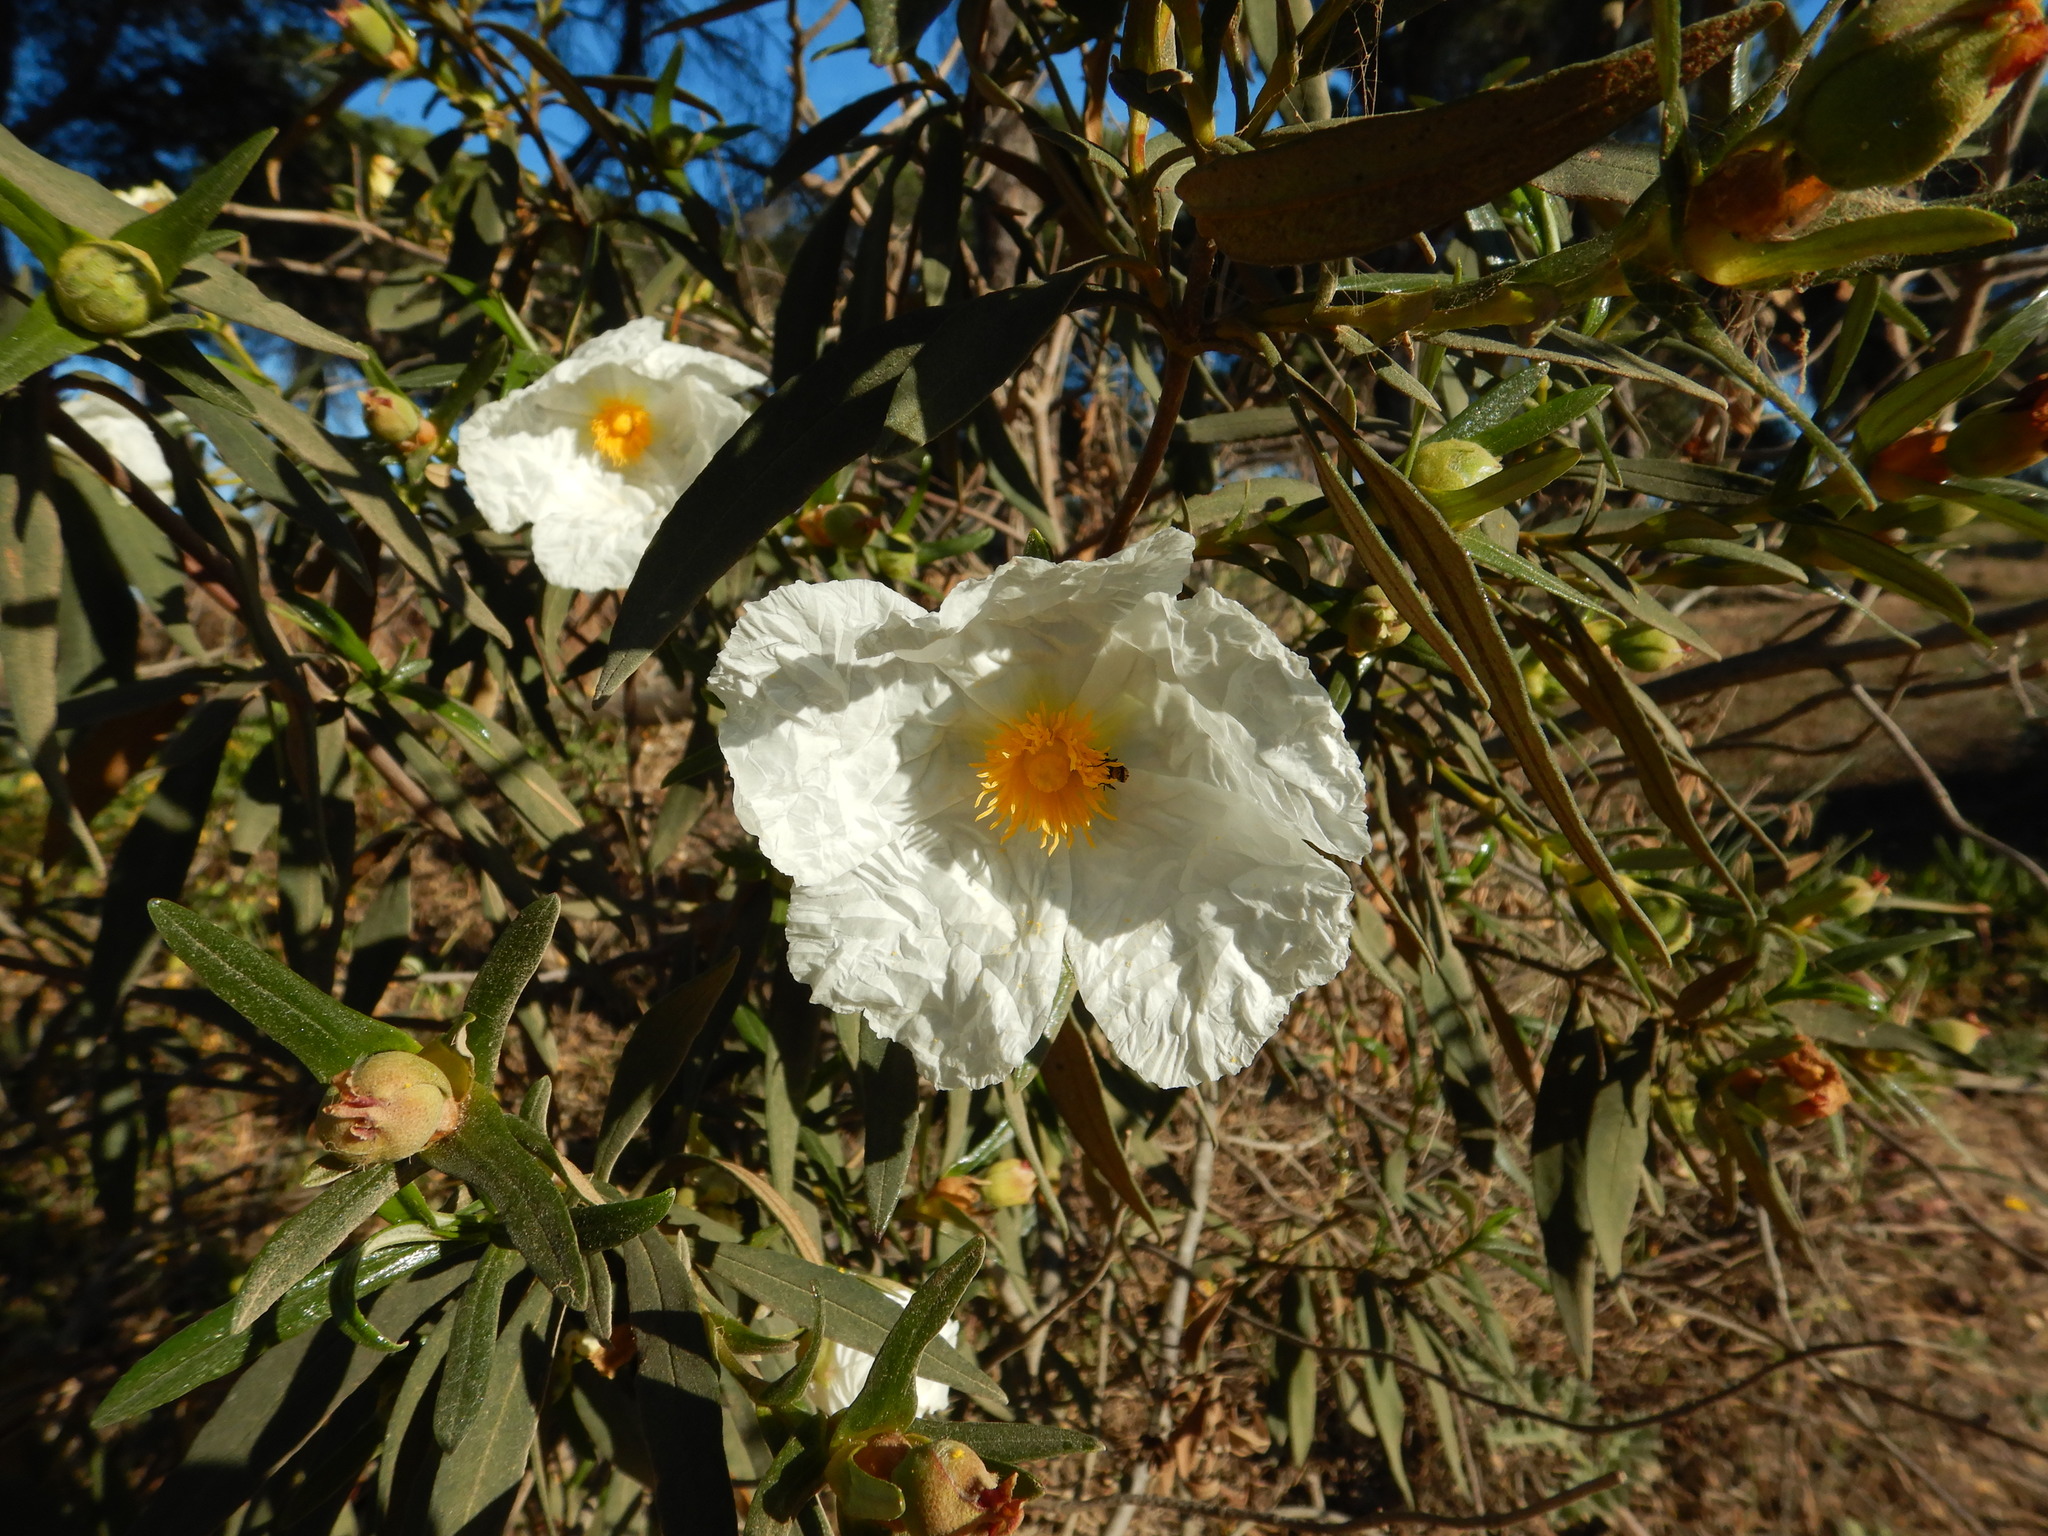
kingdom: Plantae
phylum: Tracheophyta
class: Magnoliopsida
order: Malvales
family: Cistaceae
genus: Cistus
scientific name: Cistus ladanifer
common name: Common gum cistus
